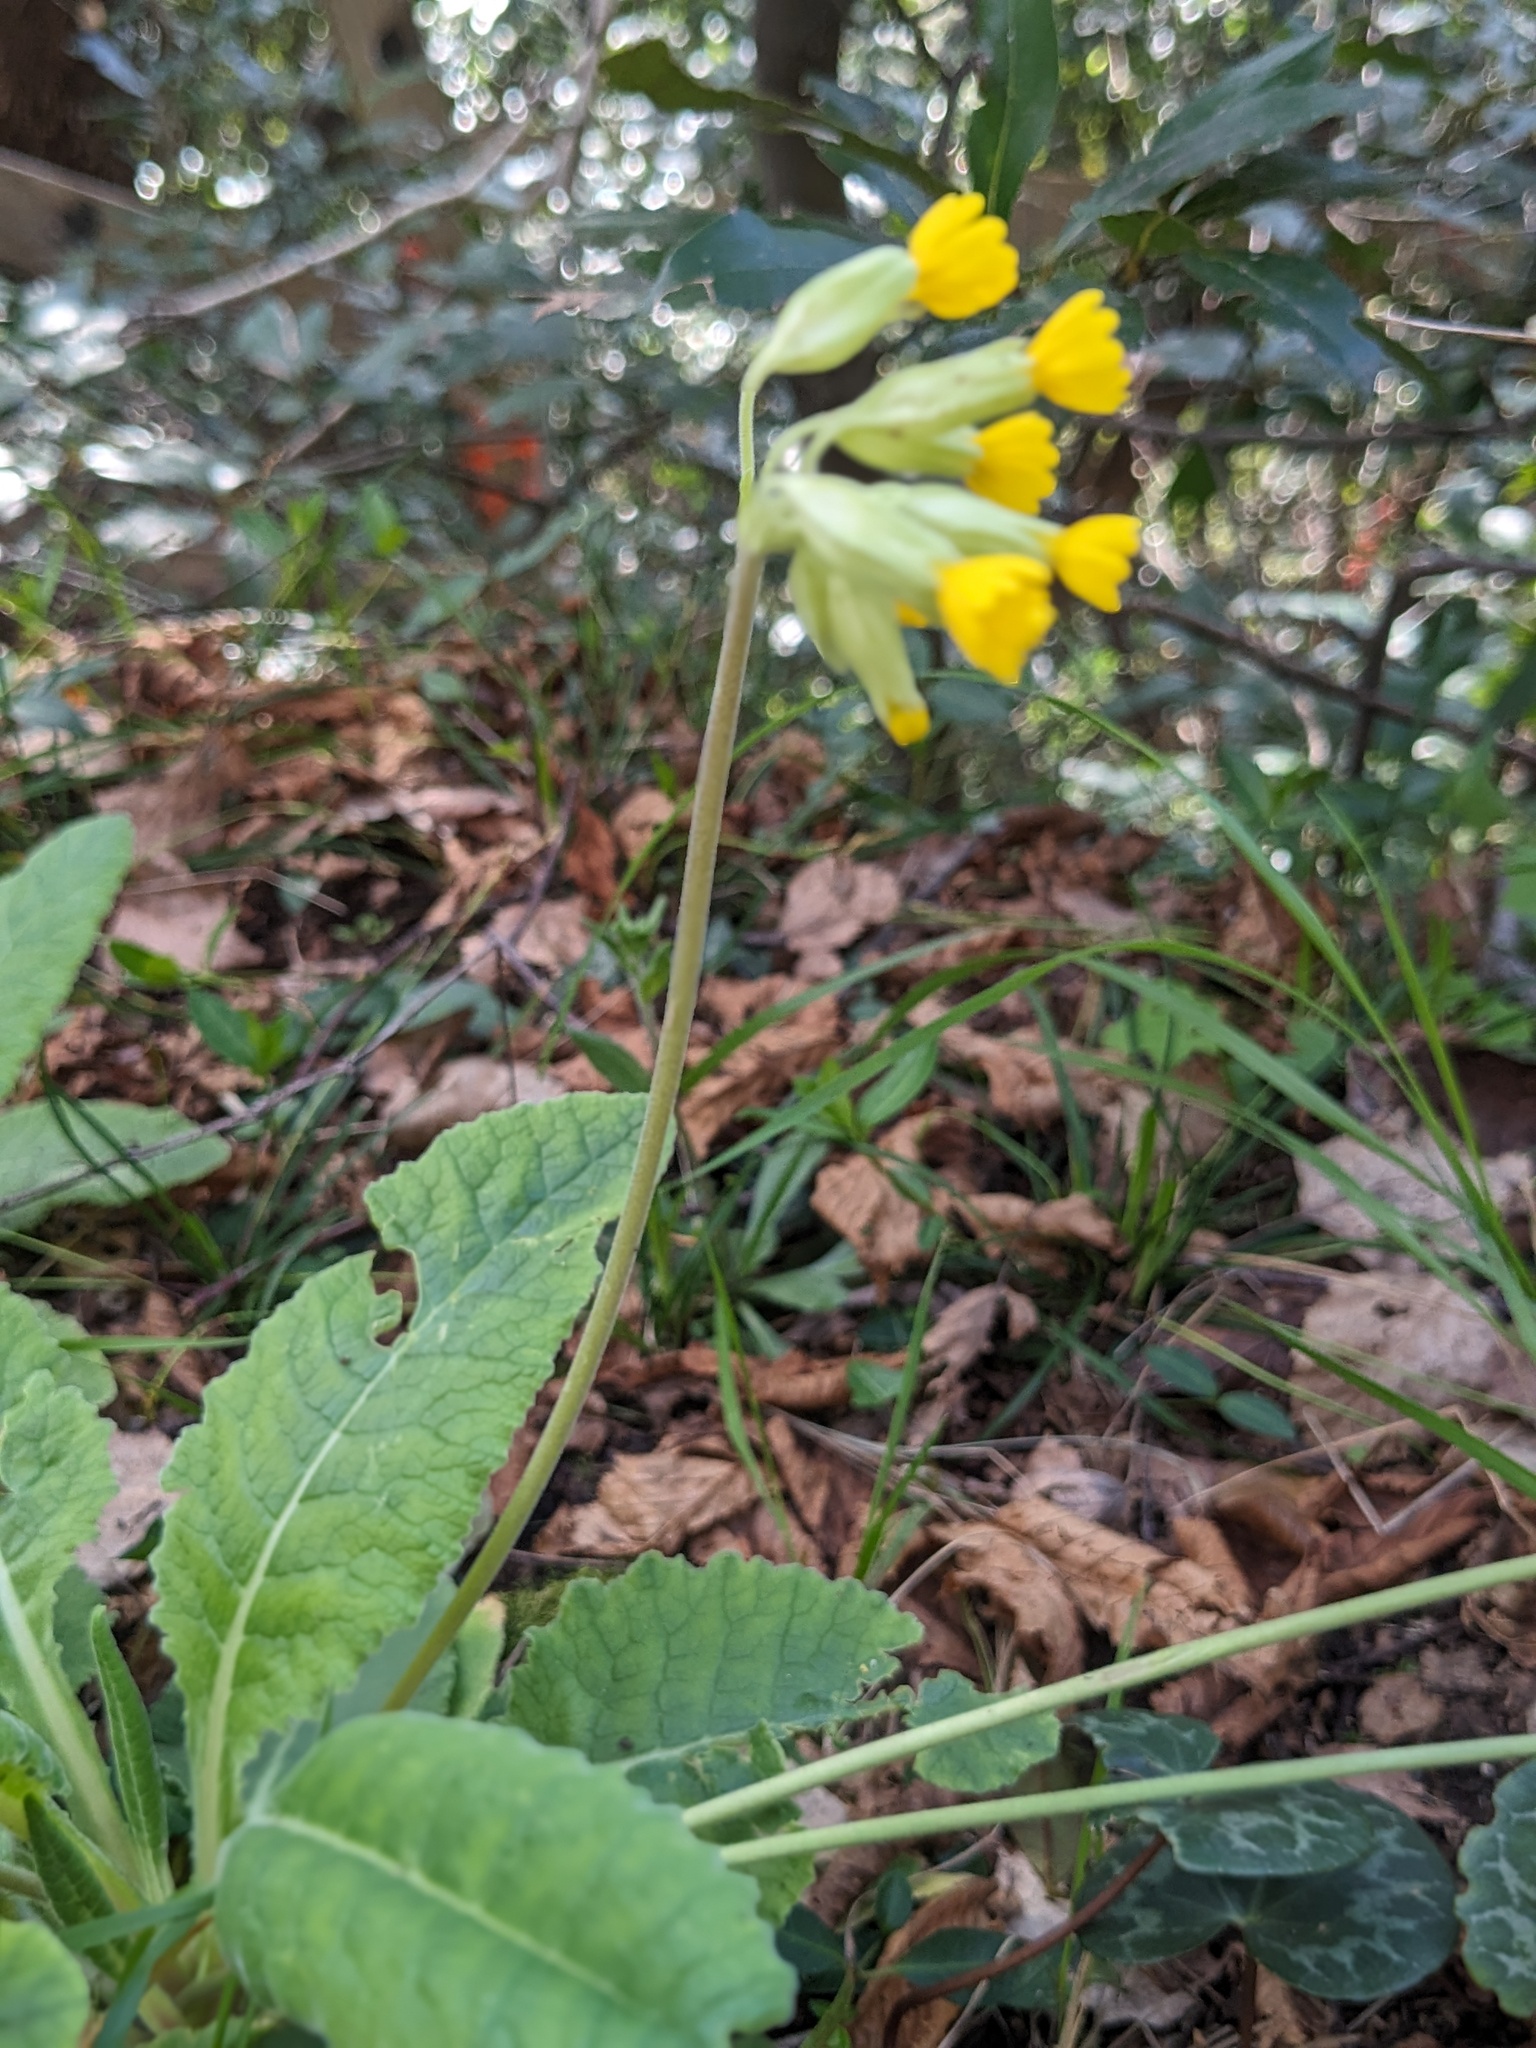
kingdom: Plantae
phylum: Tracheophyta
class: Magnoliopsida
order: Ericales
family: Primulaceae
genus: Primula
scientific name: Primula veris
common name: Cowslip
